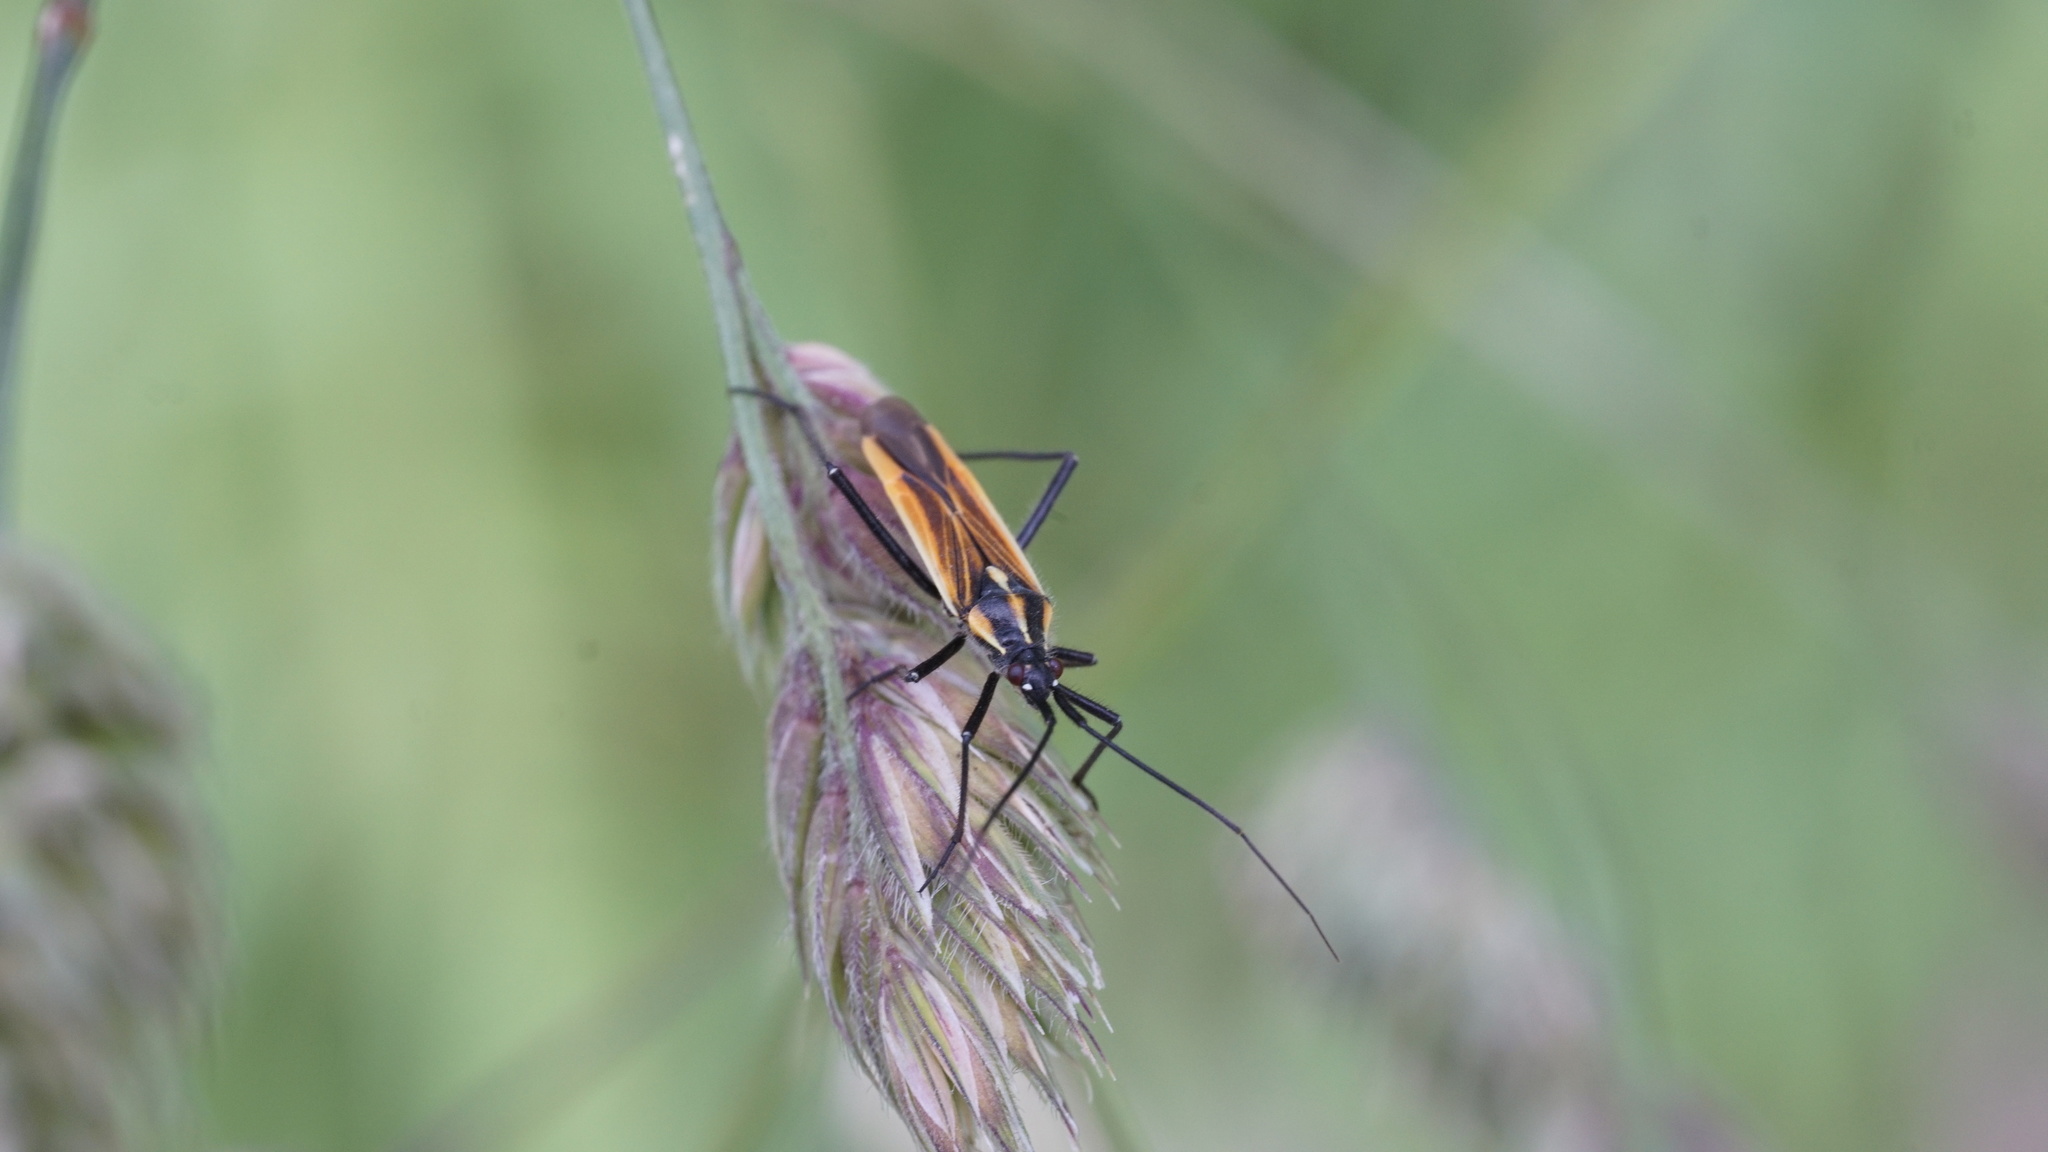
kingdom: Animalia
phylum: Arthropoda
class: Insecta
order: Hemiptera
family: Miridae
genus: Leptopterna
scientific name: Leptopterna dolabrata
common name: Meadow plant bug
